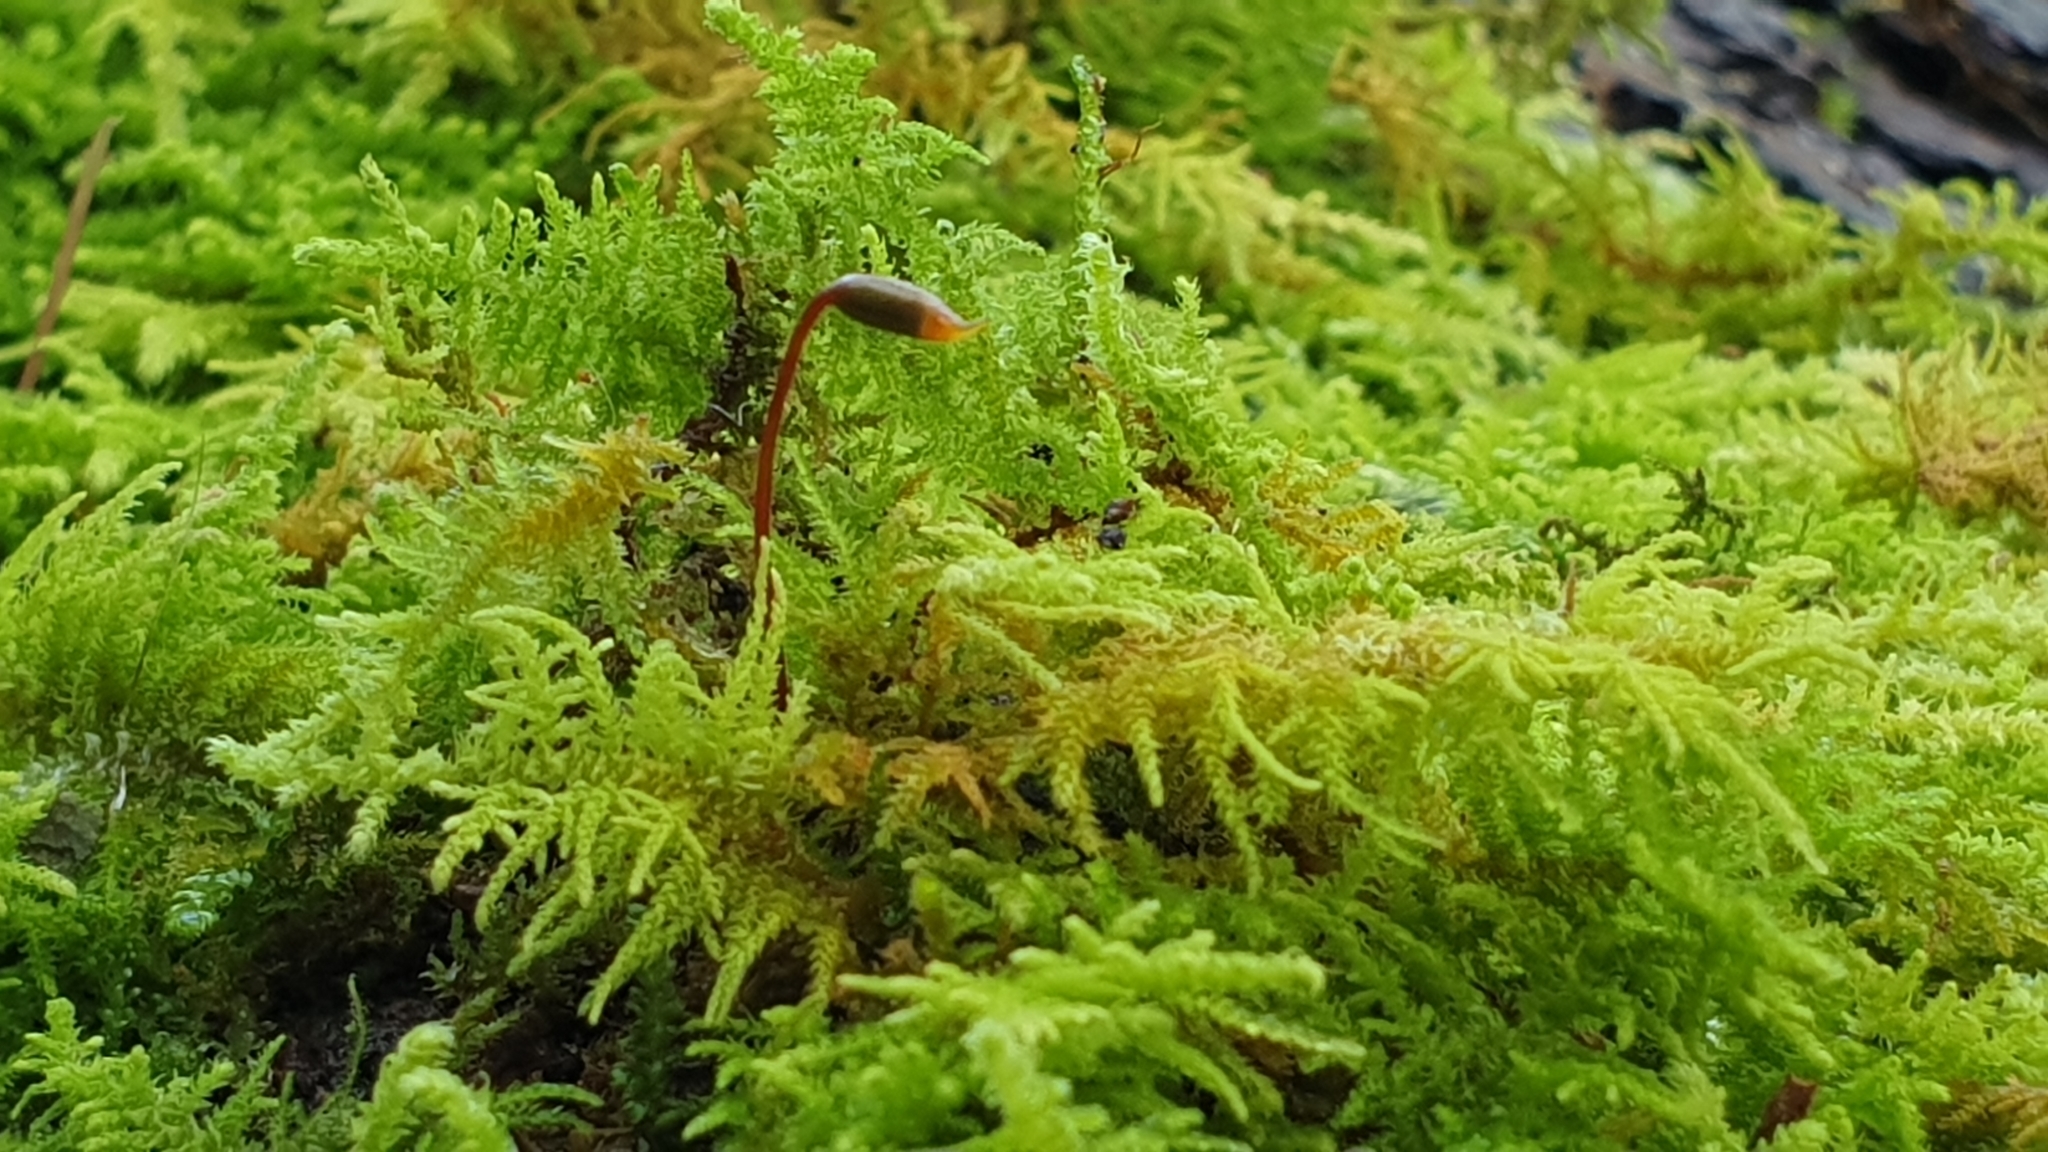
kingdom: Plantae
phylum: Bryophyta
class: Bryopsida
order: Hypnales
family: Thuidiaceae
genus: Thuidiopsis
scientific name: Thuidiopsis sparsa
